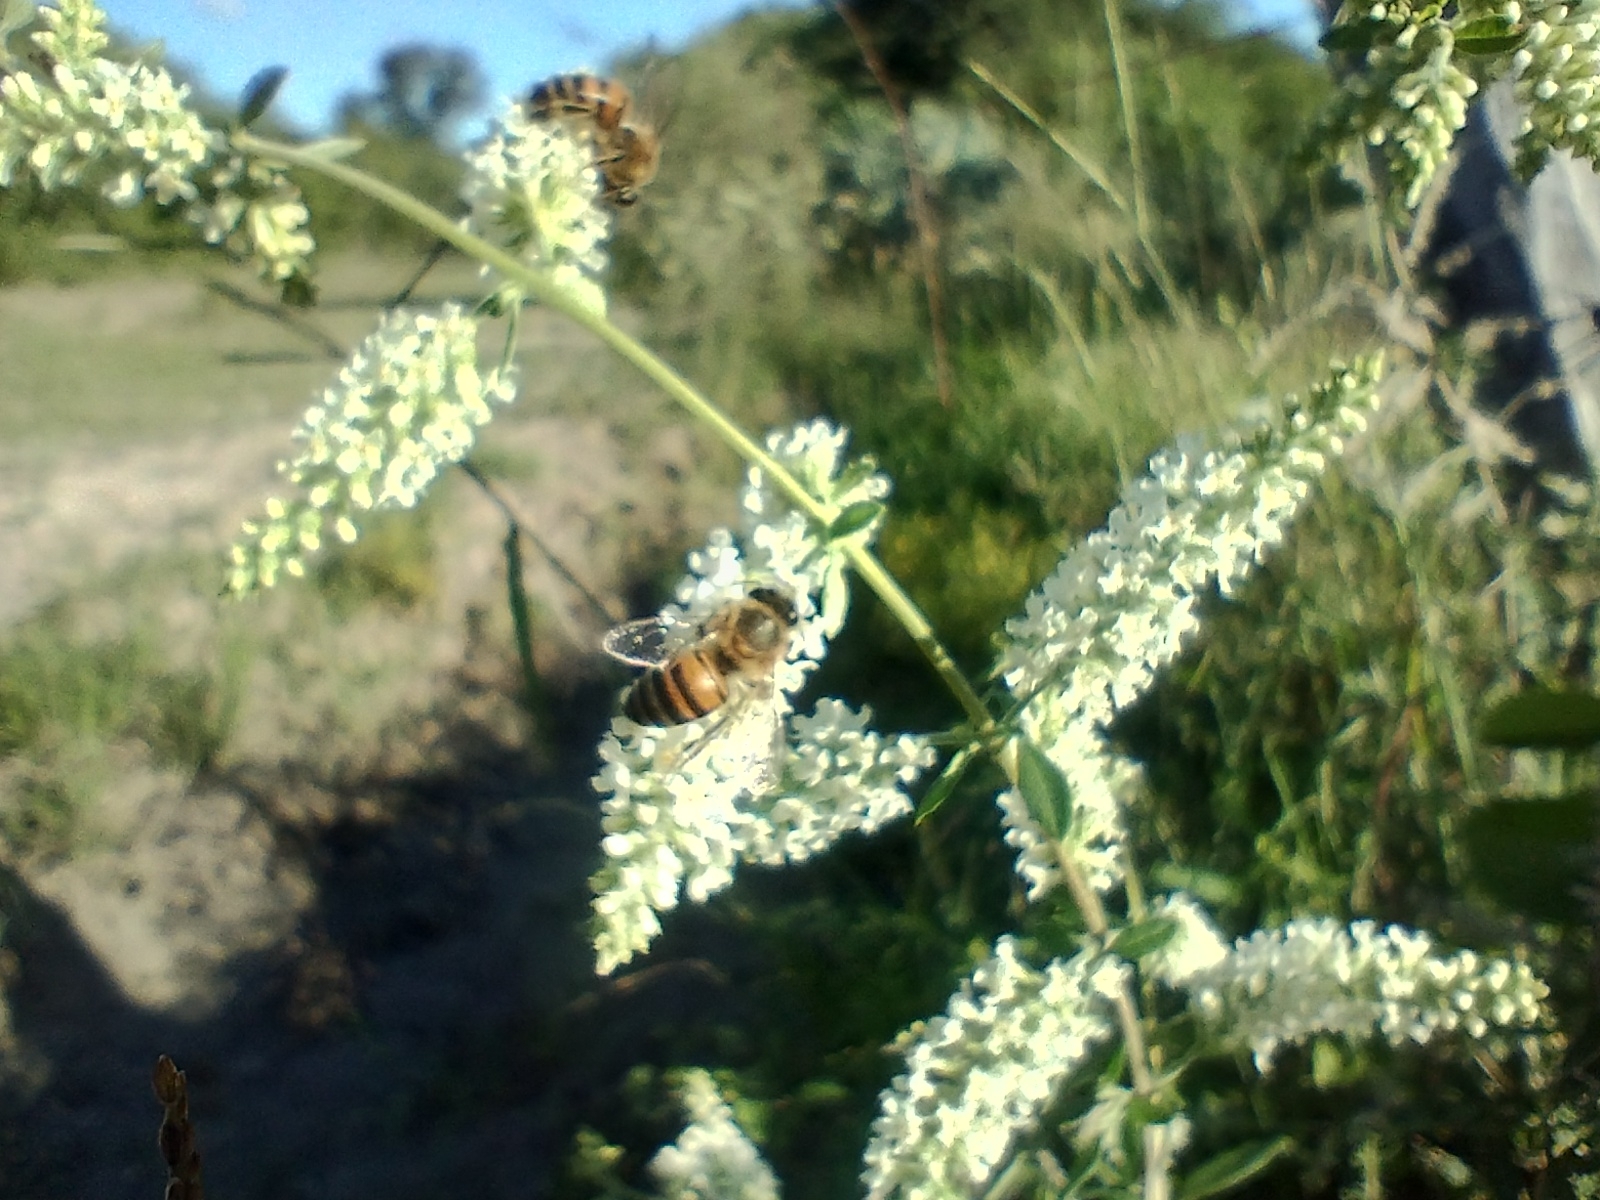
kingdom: Plantae
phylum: Tracheophyta
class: Magnoliopsida
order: Lamiales
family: Verbenaceae
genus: Aloysia
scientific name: Aloysia gratissima
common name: Common bee-brush
